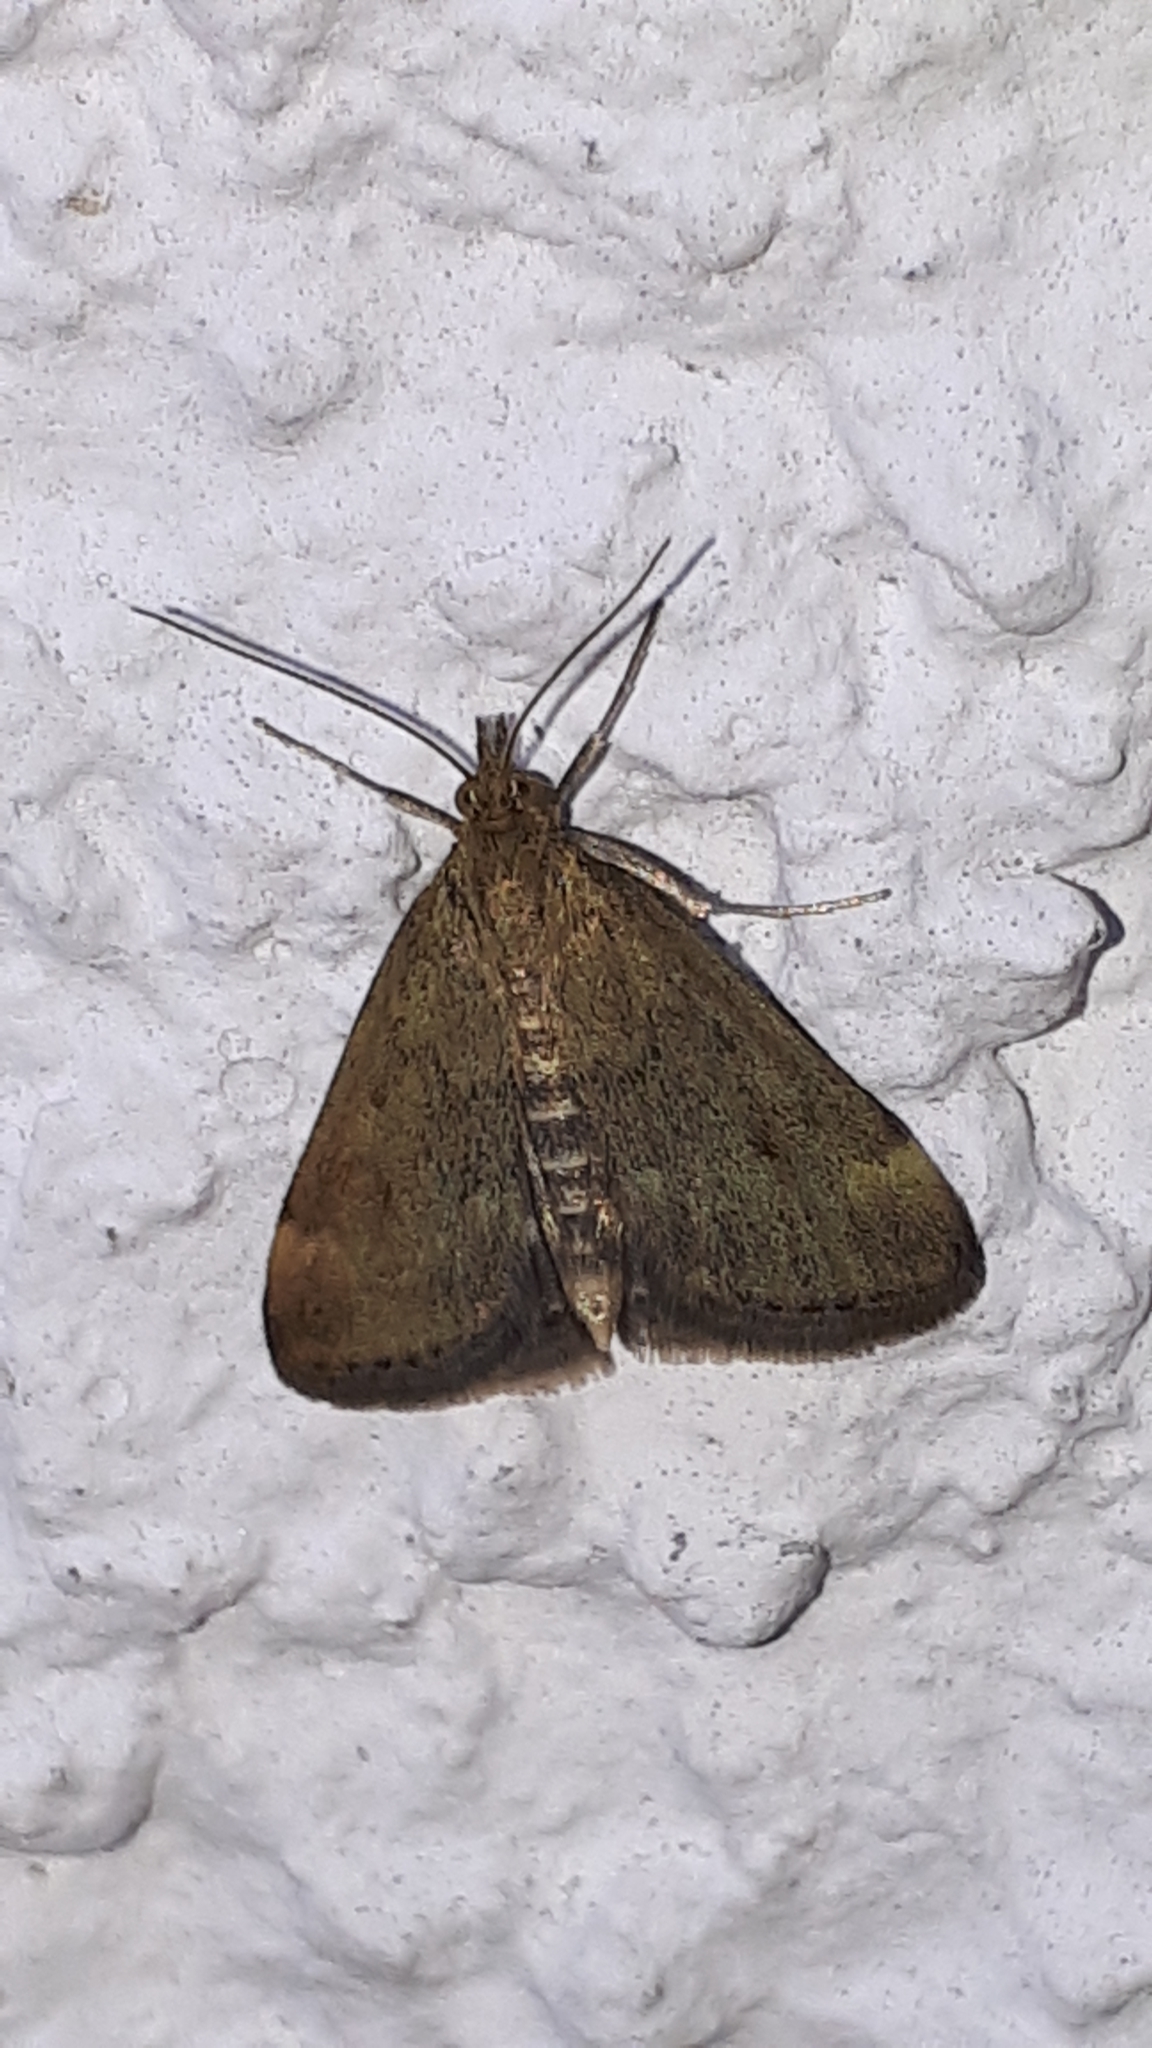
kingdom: Animalia
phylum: Arthropoda
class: Insecta
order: Lepidoptera
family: Crambidae
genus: Pyrausta
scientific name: Pyrausta despicata
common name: Straw-barred pearl
